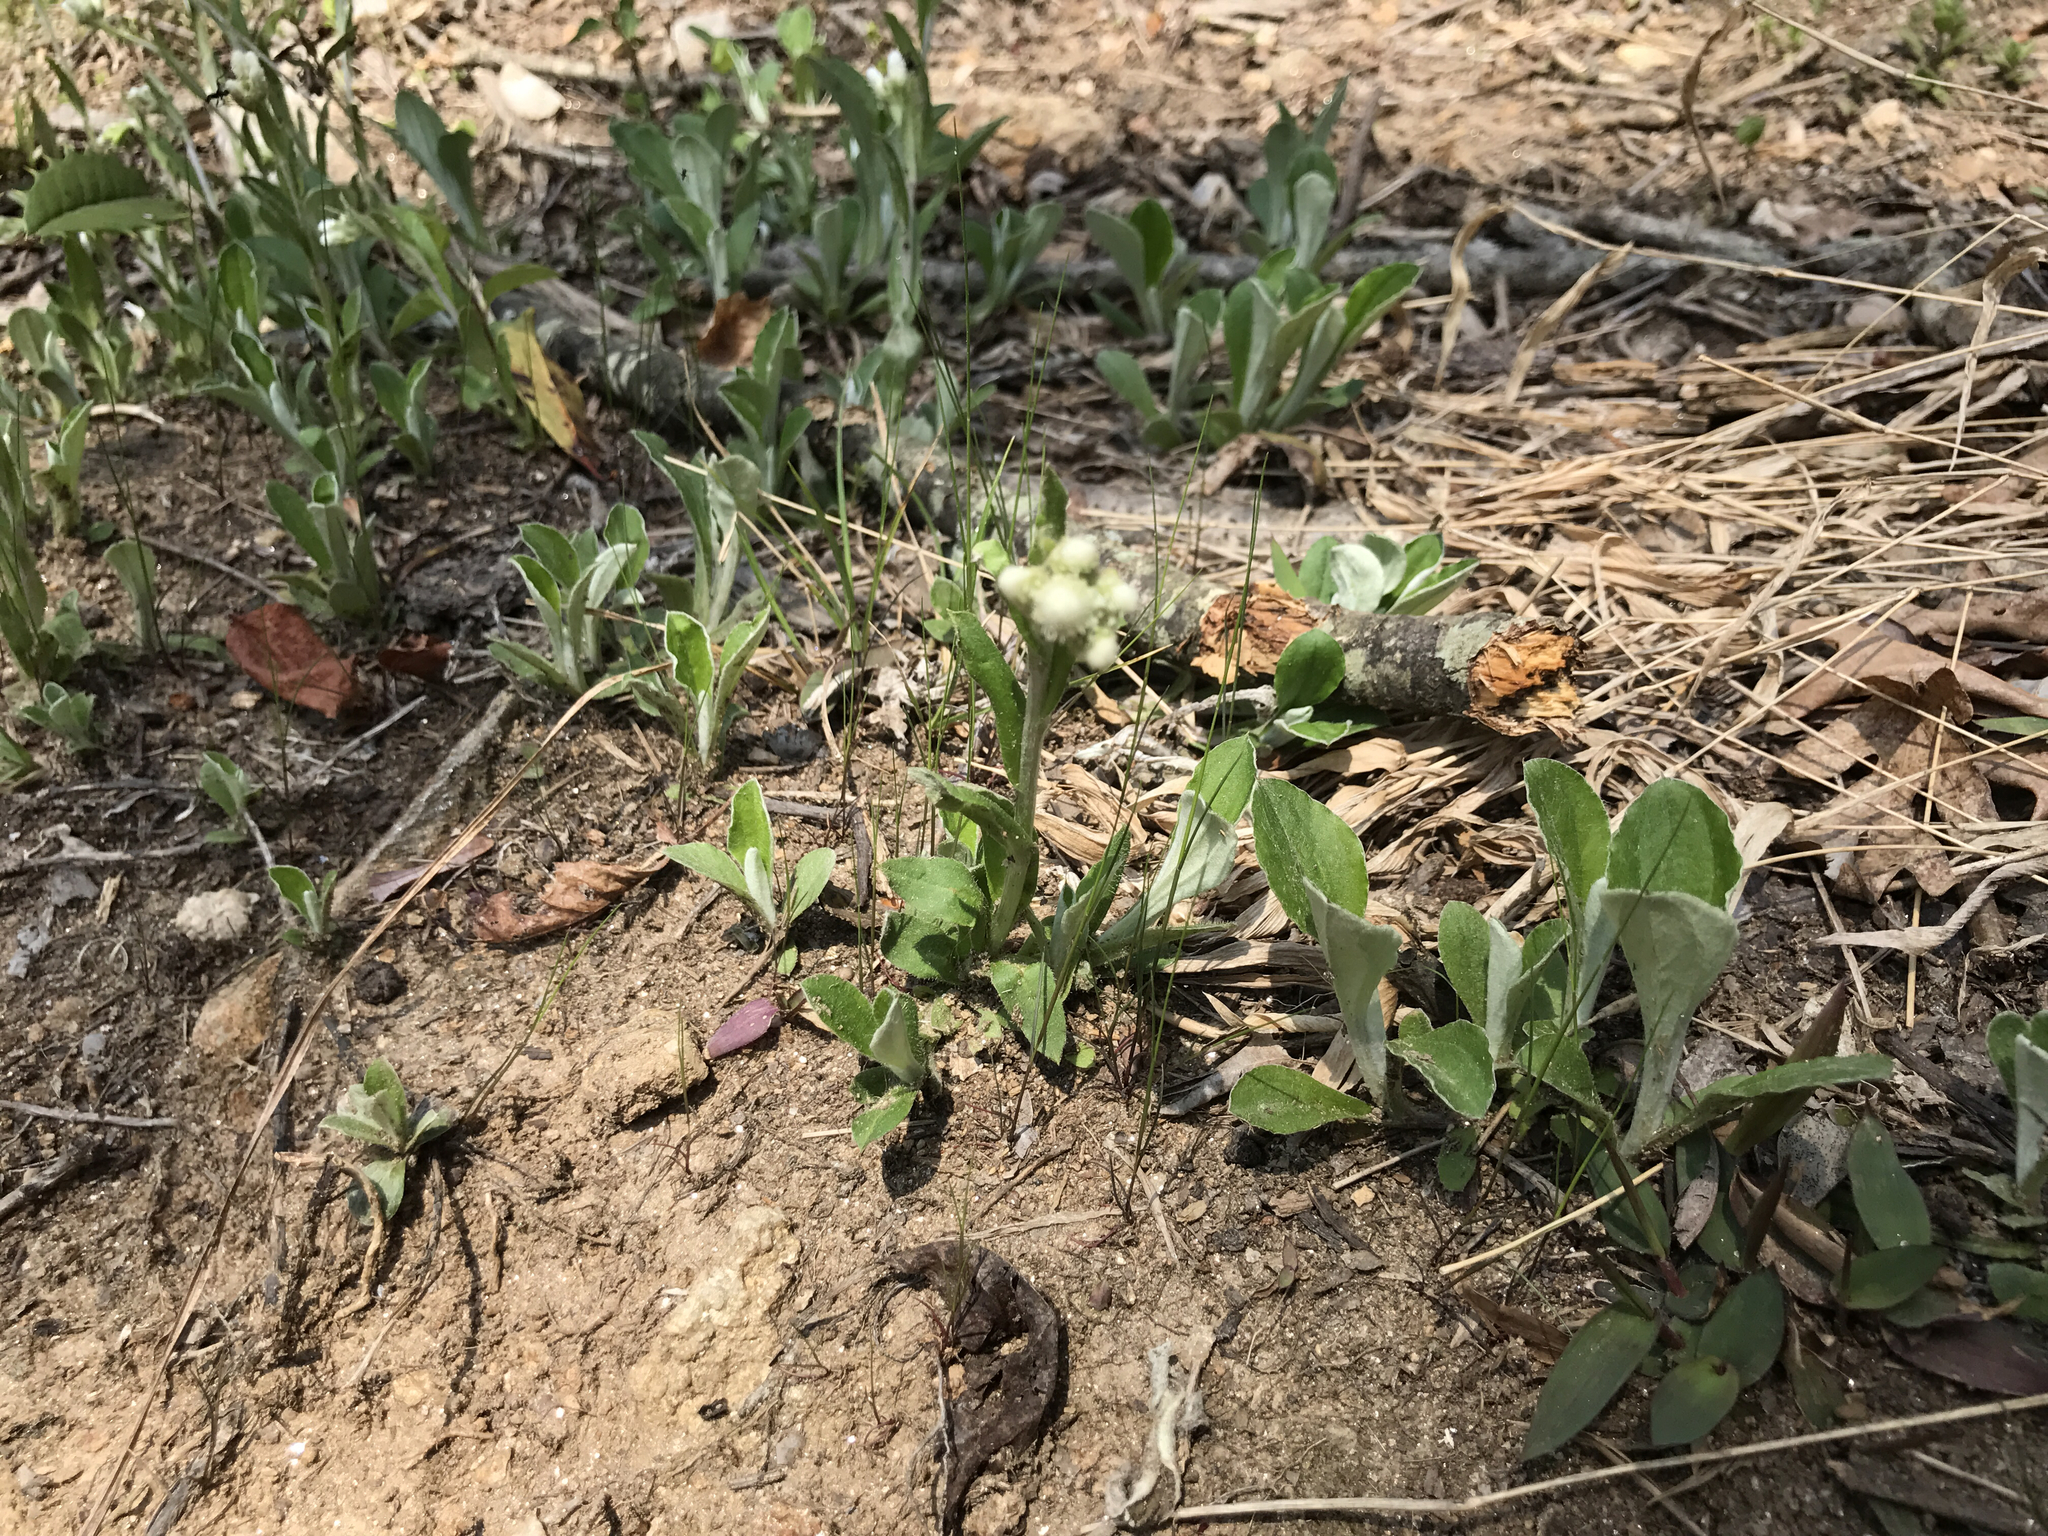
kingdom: Plantae
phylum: Tracheophyta
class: Magnoliopsida
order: Asterales
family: Asteraceae
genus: Antennaria
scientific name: Antennaria plantaginifolia
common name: Plantain-leaved pussytoes
